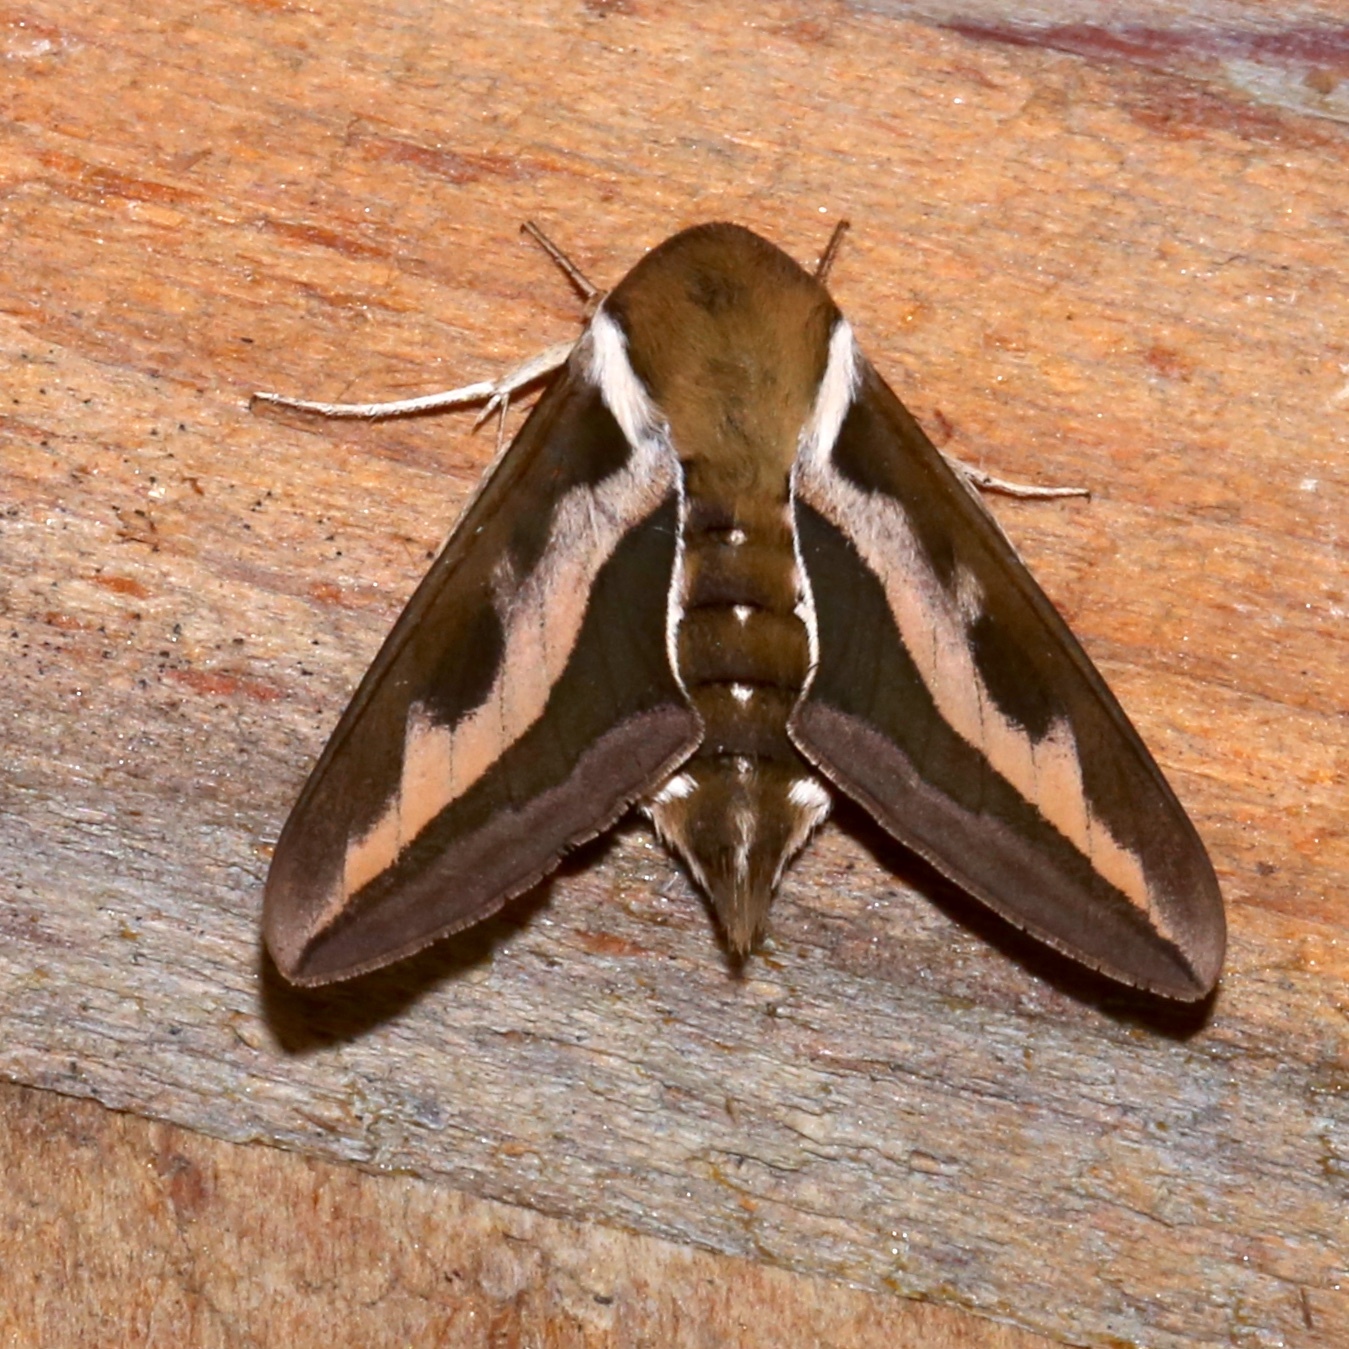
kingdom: Animalia
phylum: Arthropoda
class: Insecta
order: Lepidoptera
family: Sphingidae
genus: Hyles
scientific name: Hyles gallii
